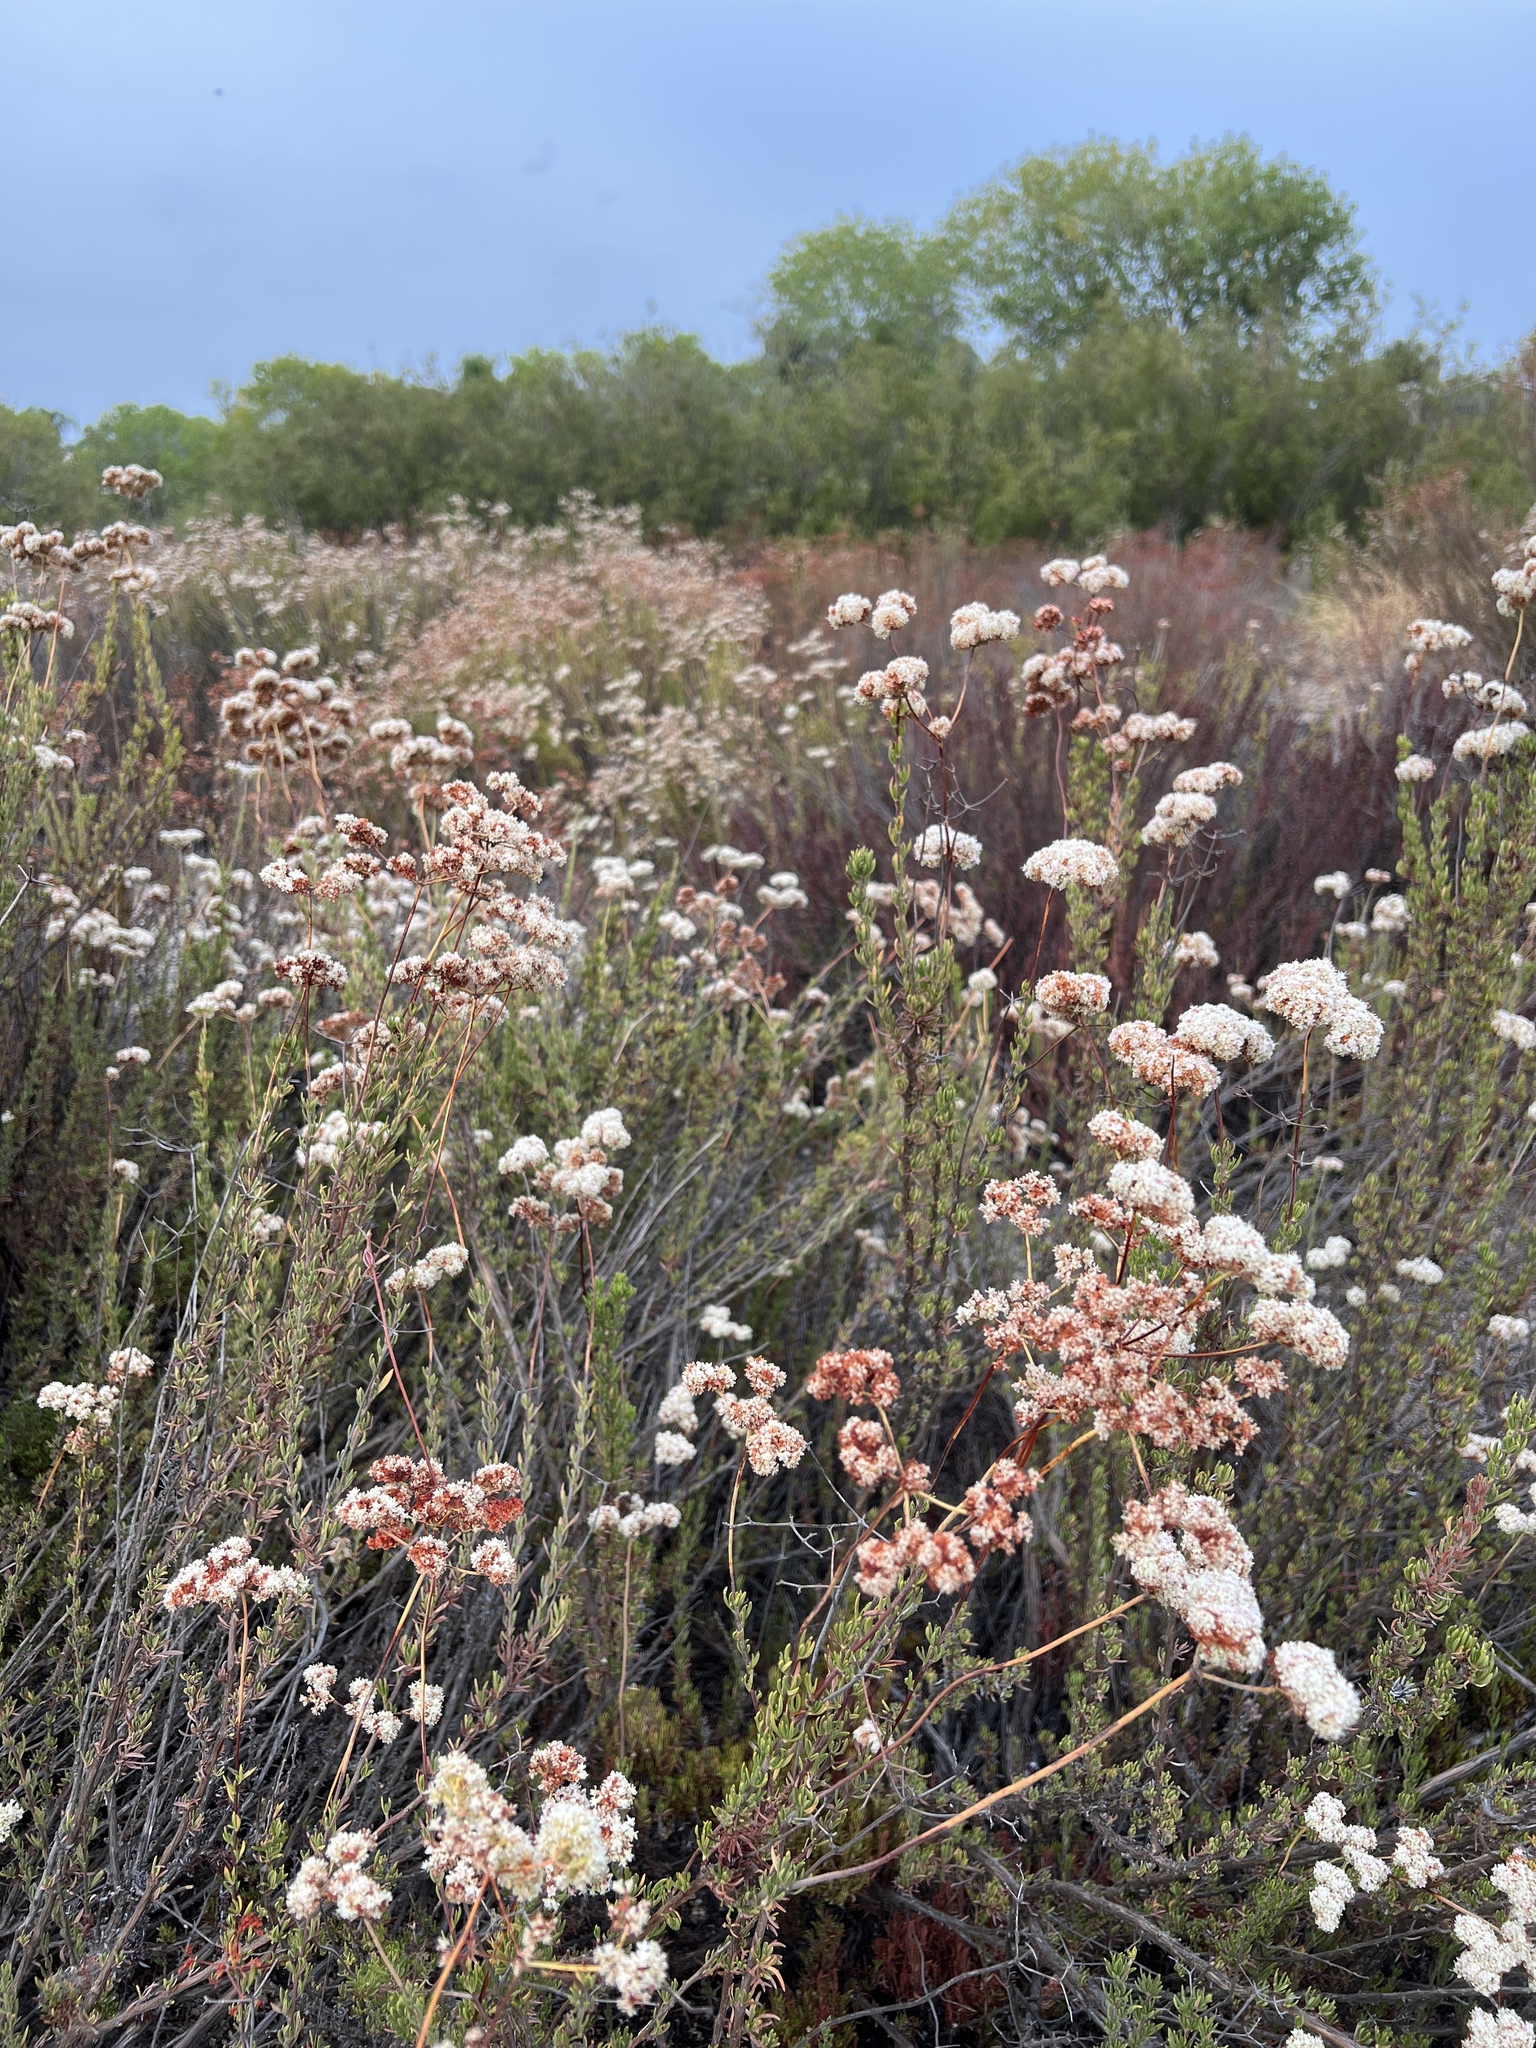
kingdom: Plantae
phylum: Tracheophyta
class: Magnoliopsida
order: Caryophyllales
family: Polygonaceae
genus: Eriogonum
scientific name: Eriogonum fasciculatum
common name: California wild buckwheat
